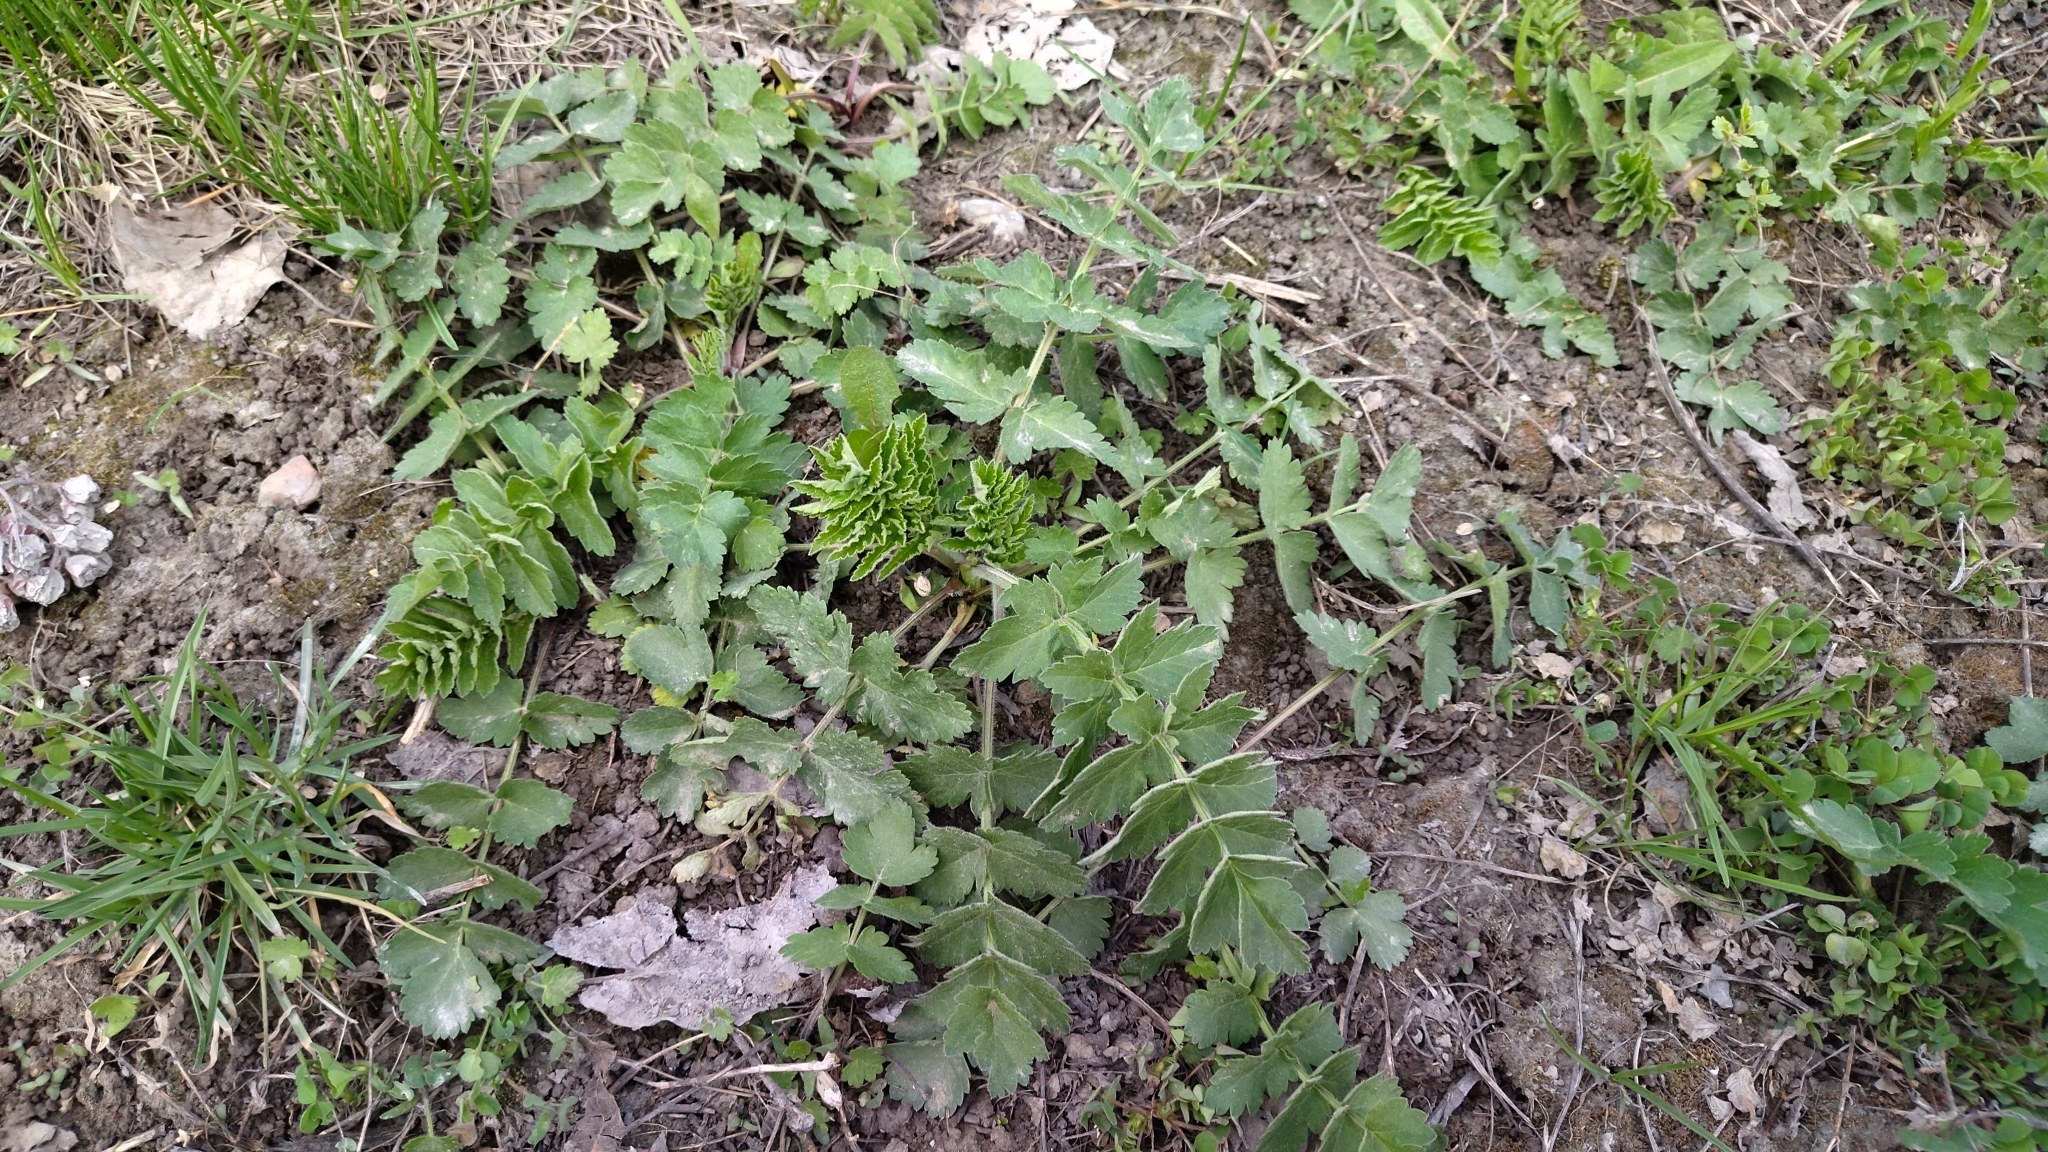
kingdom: Plantae
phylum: Tracheophyta
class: Magnoliopsida
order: Apiales
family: Apiaceae
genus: Pimpinella
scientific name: Pimpinella saxifraga
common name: Burnet-saxifrage
